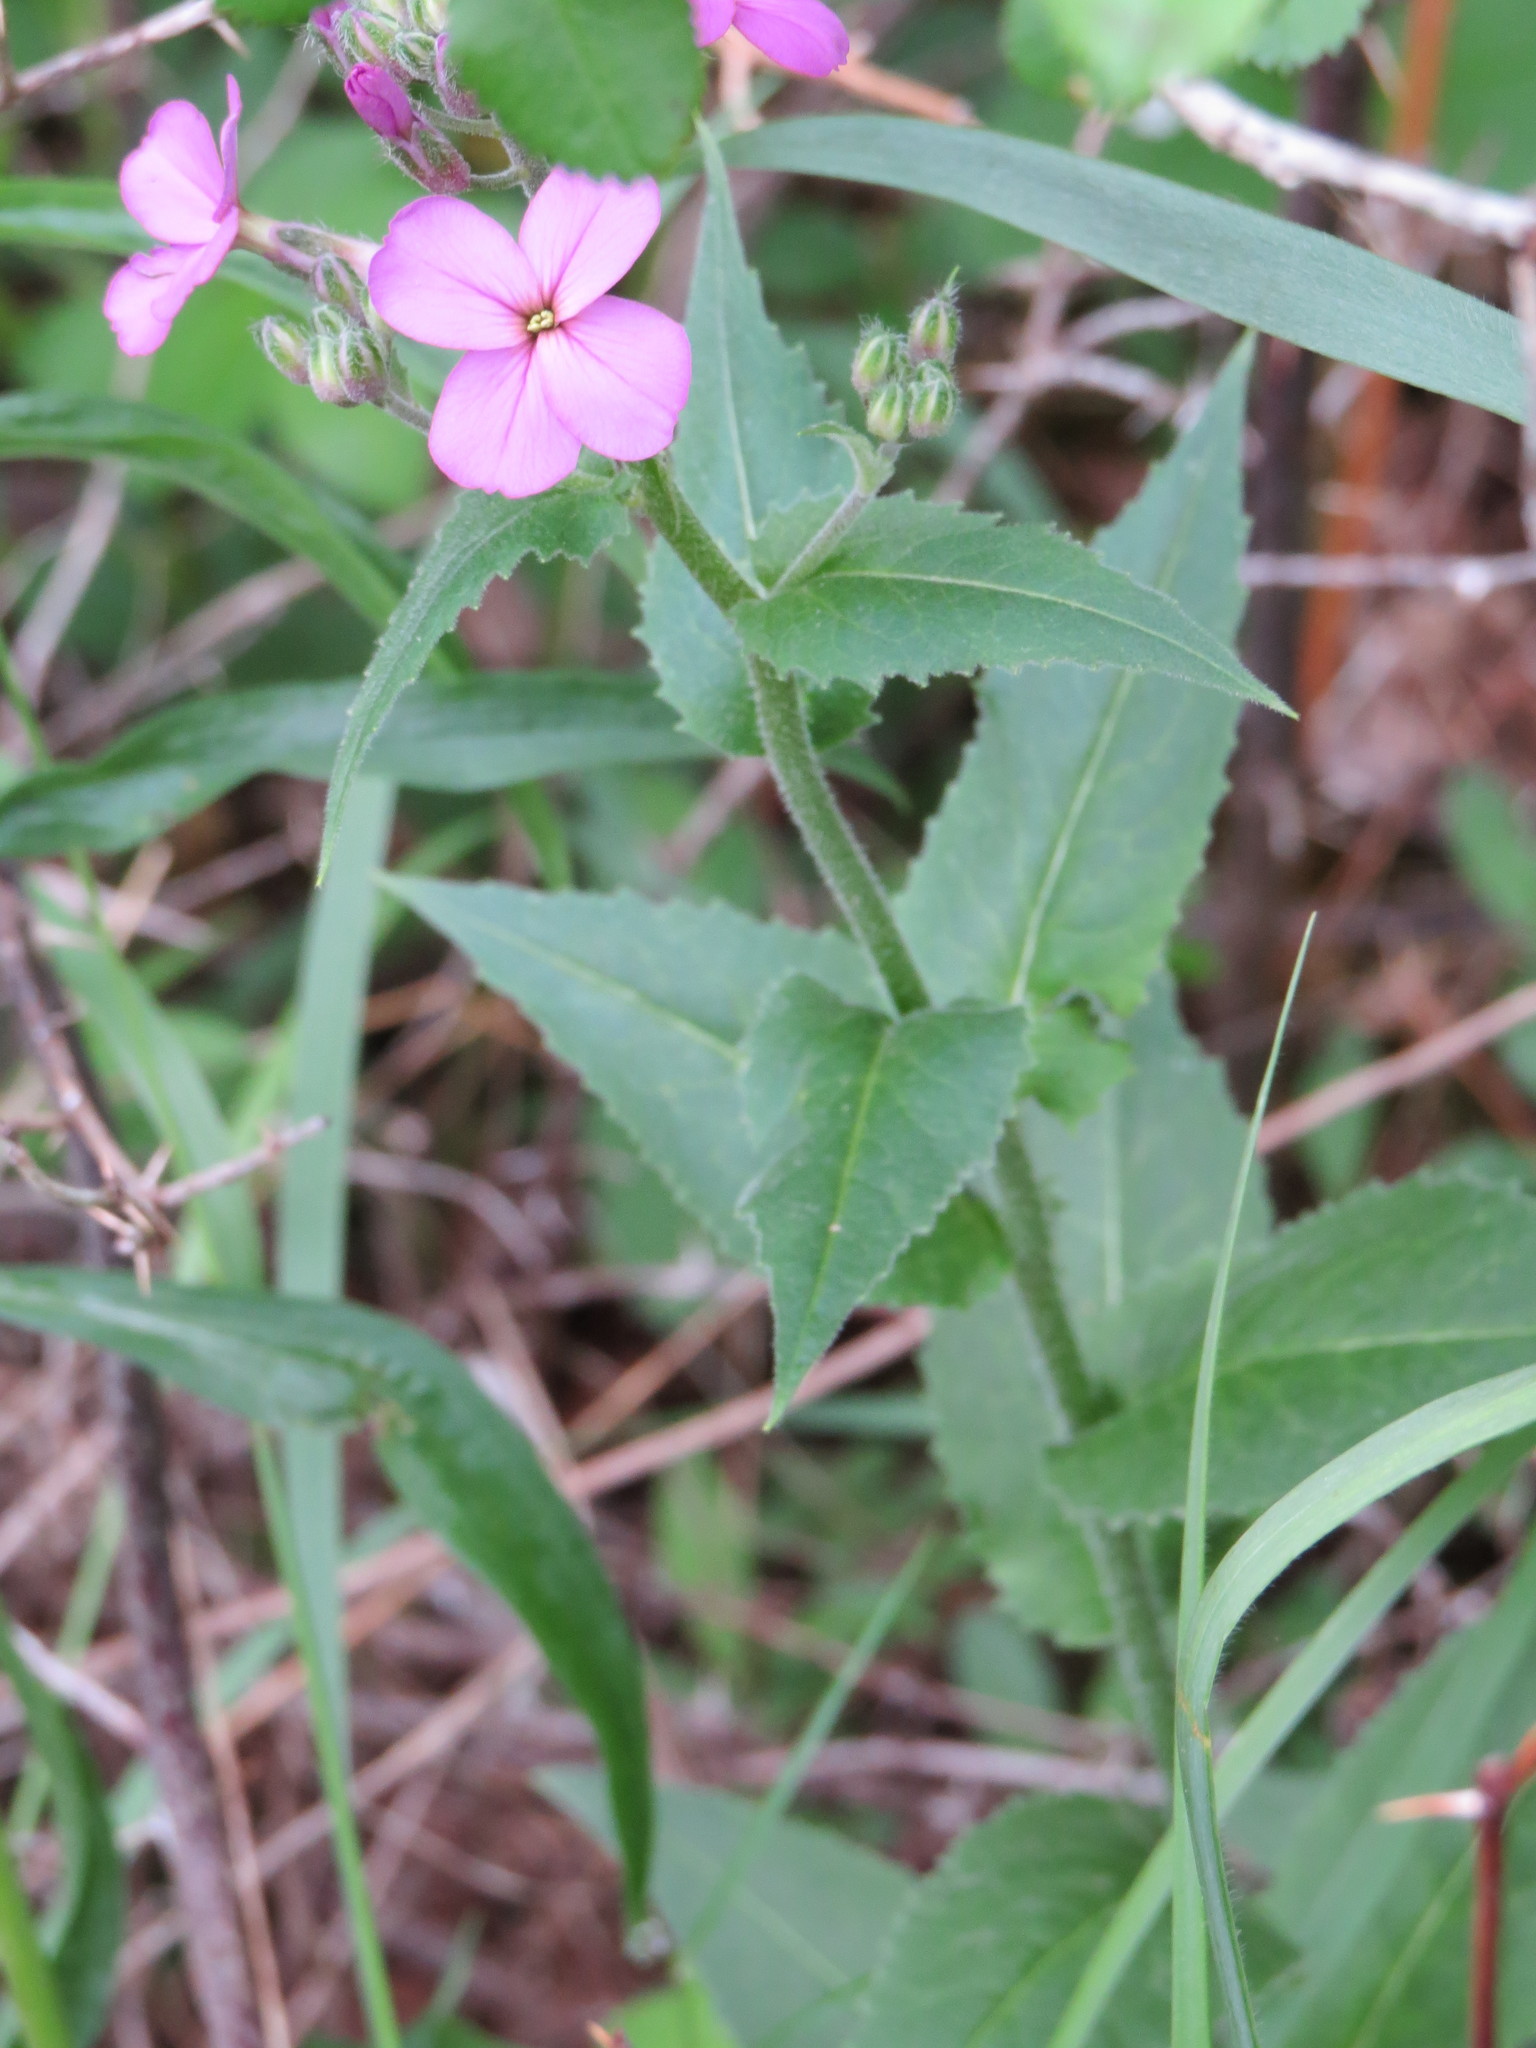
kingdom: Plantae
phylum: Tracheophyta
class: Magnoliopsida
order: Brassicales
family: Brassicaceae
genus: Hesperis
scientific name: Hesperis matronalis
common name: Dame's-violet
